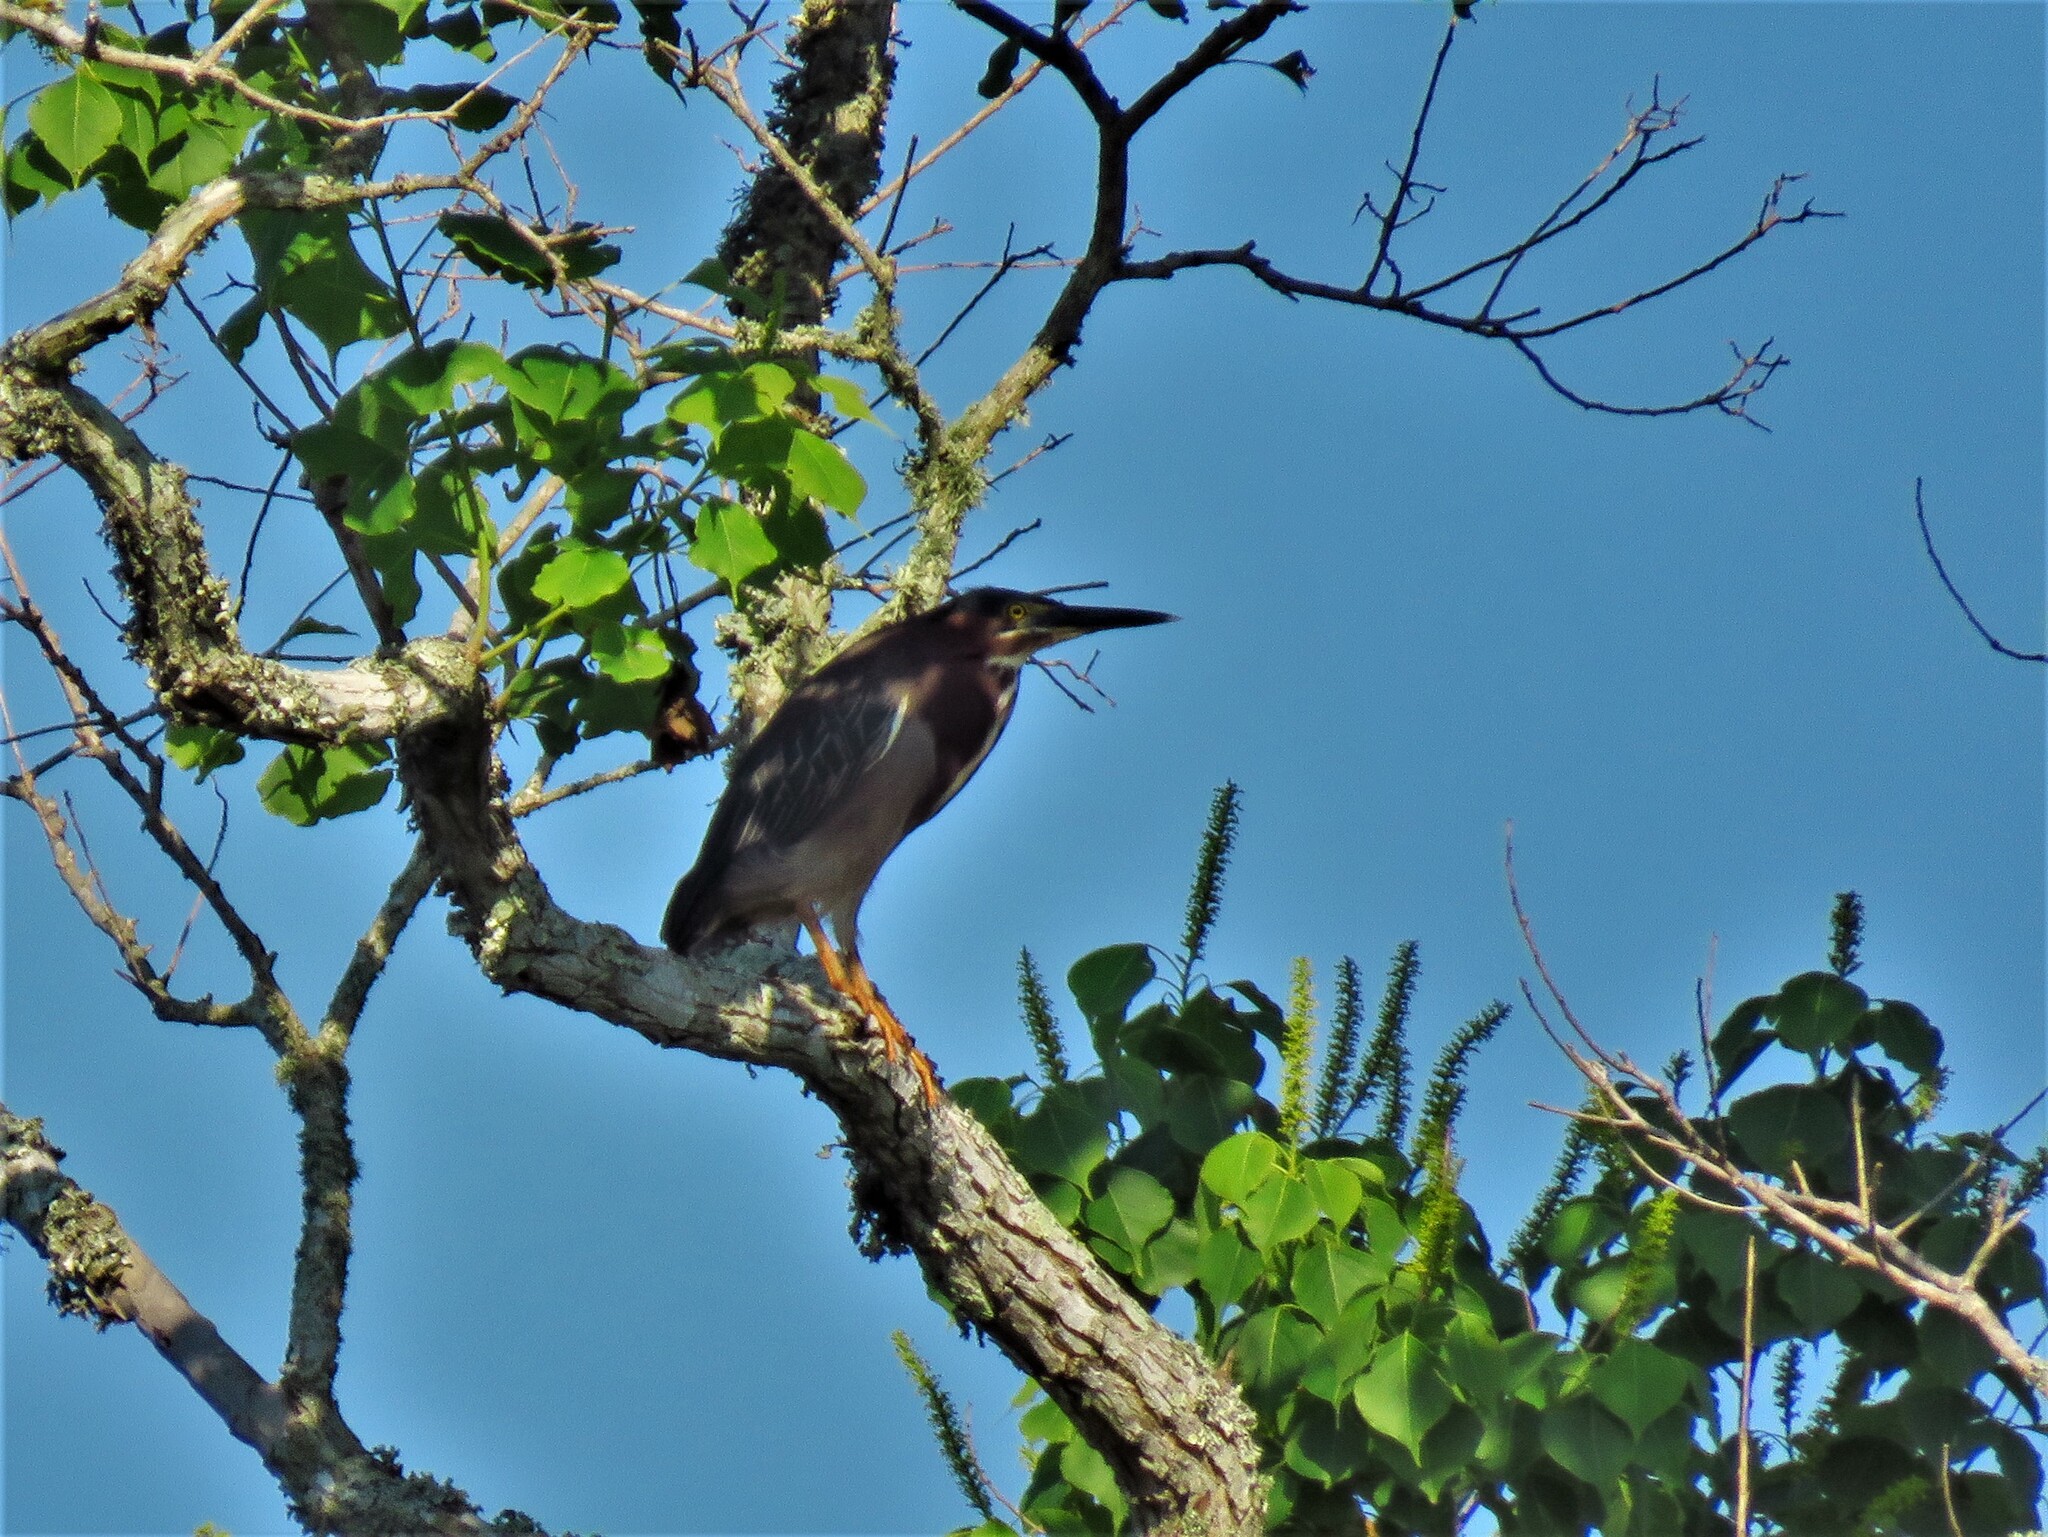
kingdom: Animalia
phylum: Chordata
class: Aves
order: Pelecaniformes
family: Ardeidae
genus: Butorides
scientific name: Butorides virescens
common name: Green heron
